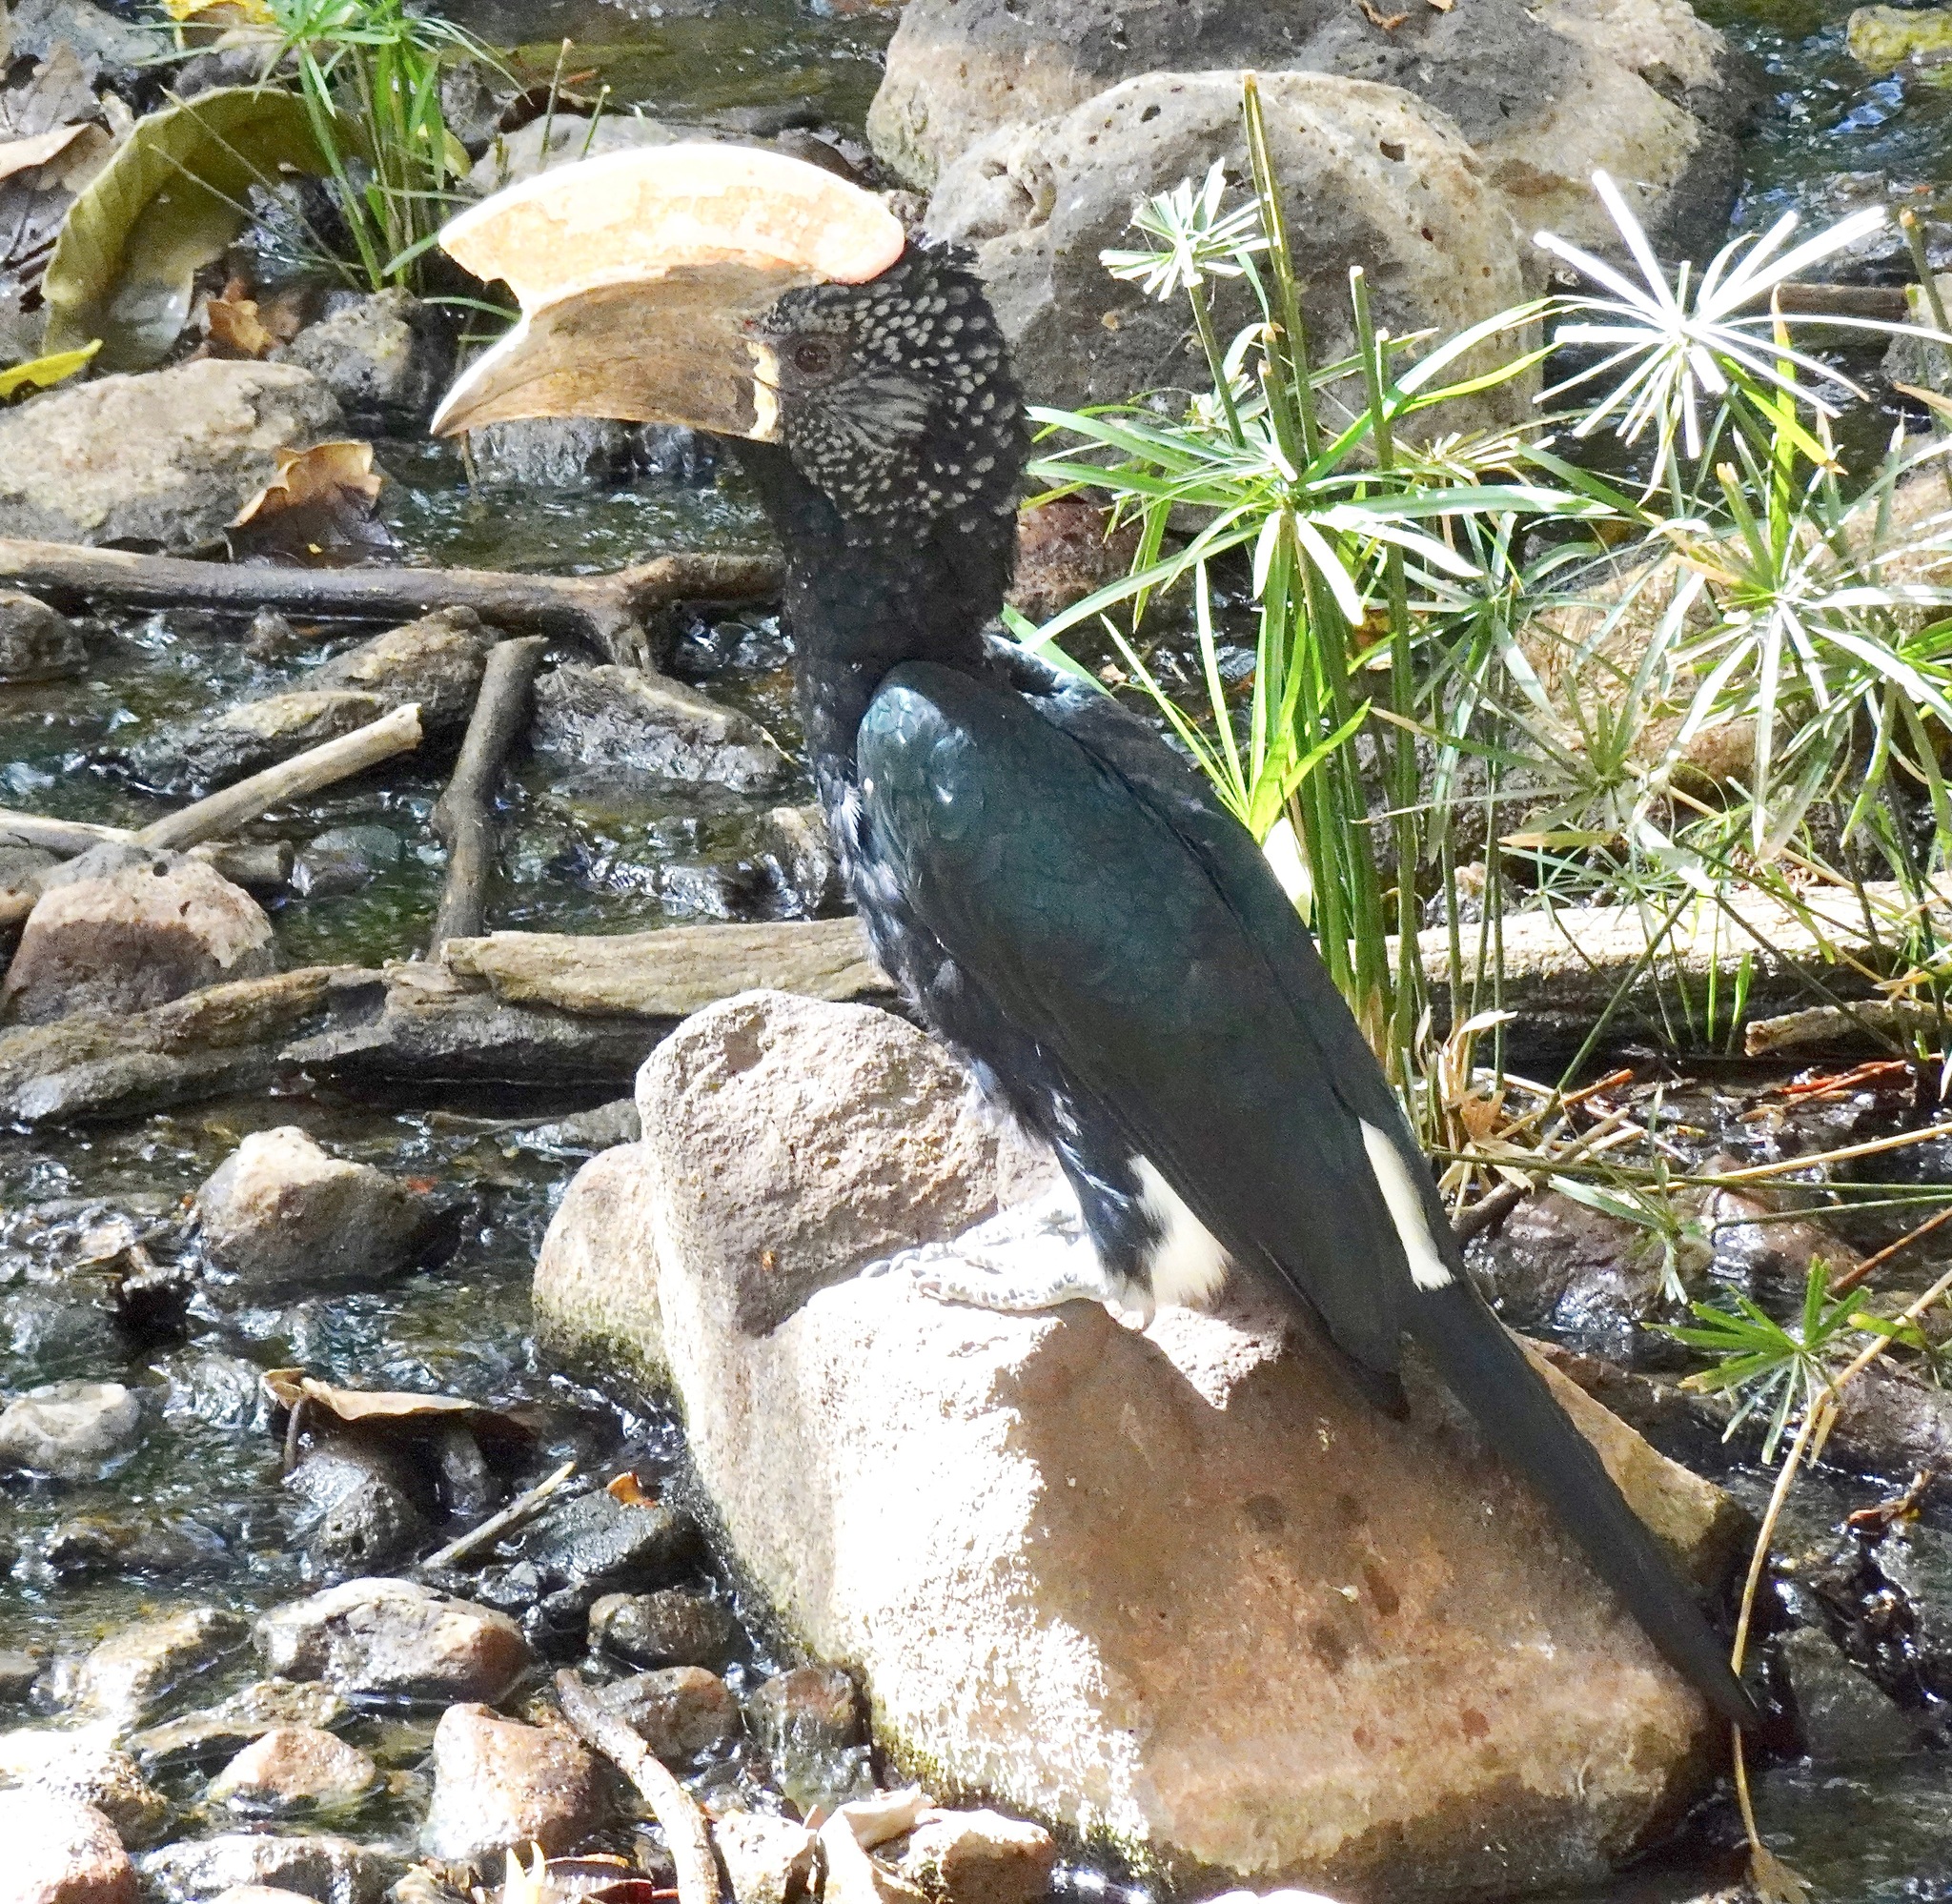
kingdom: Animalia
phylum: Chordata
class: Aves
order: Bucerotiformes
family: Bucerotidae
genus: Bycanistes
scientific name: Bycanistes brevis
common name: Silvery-cheeked hornbill
